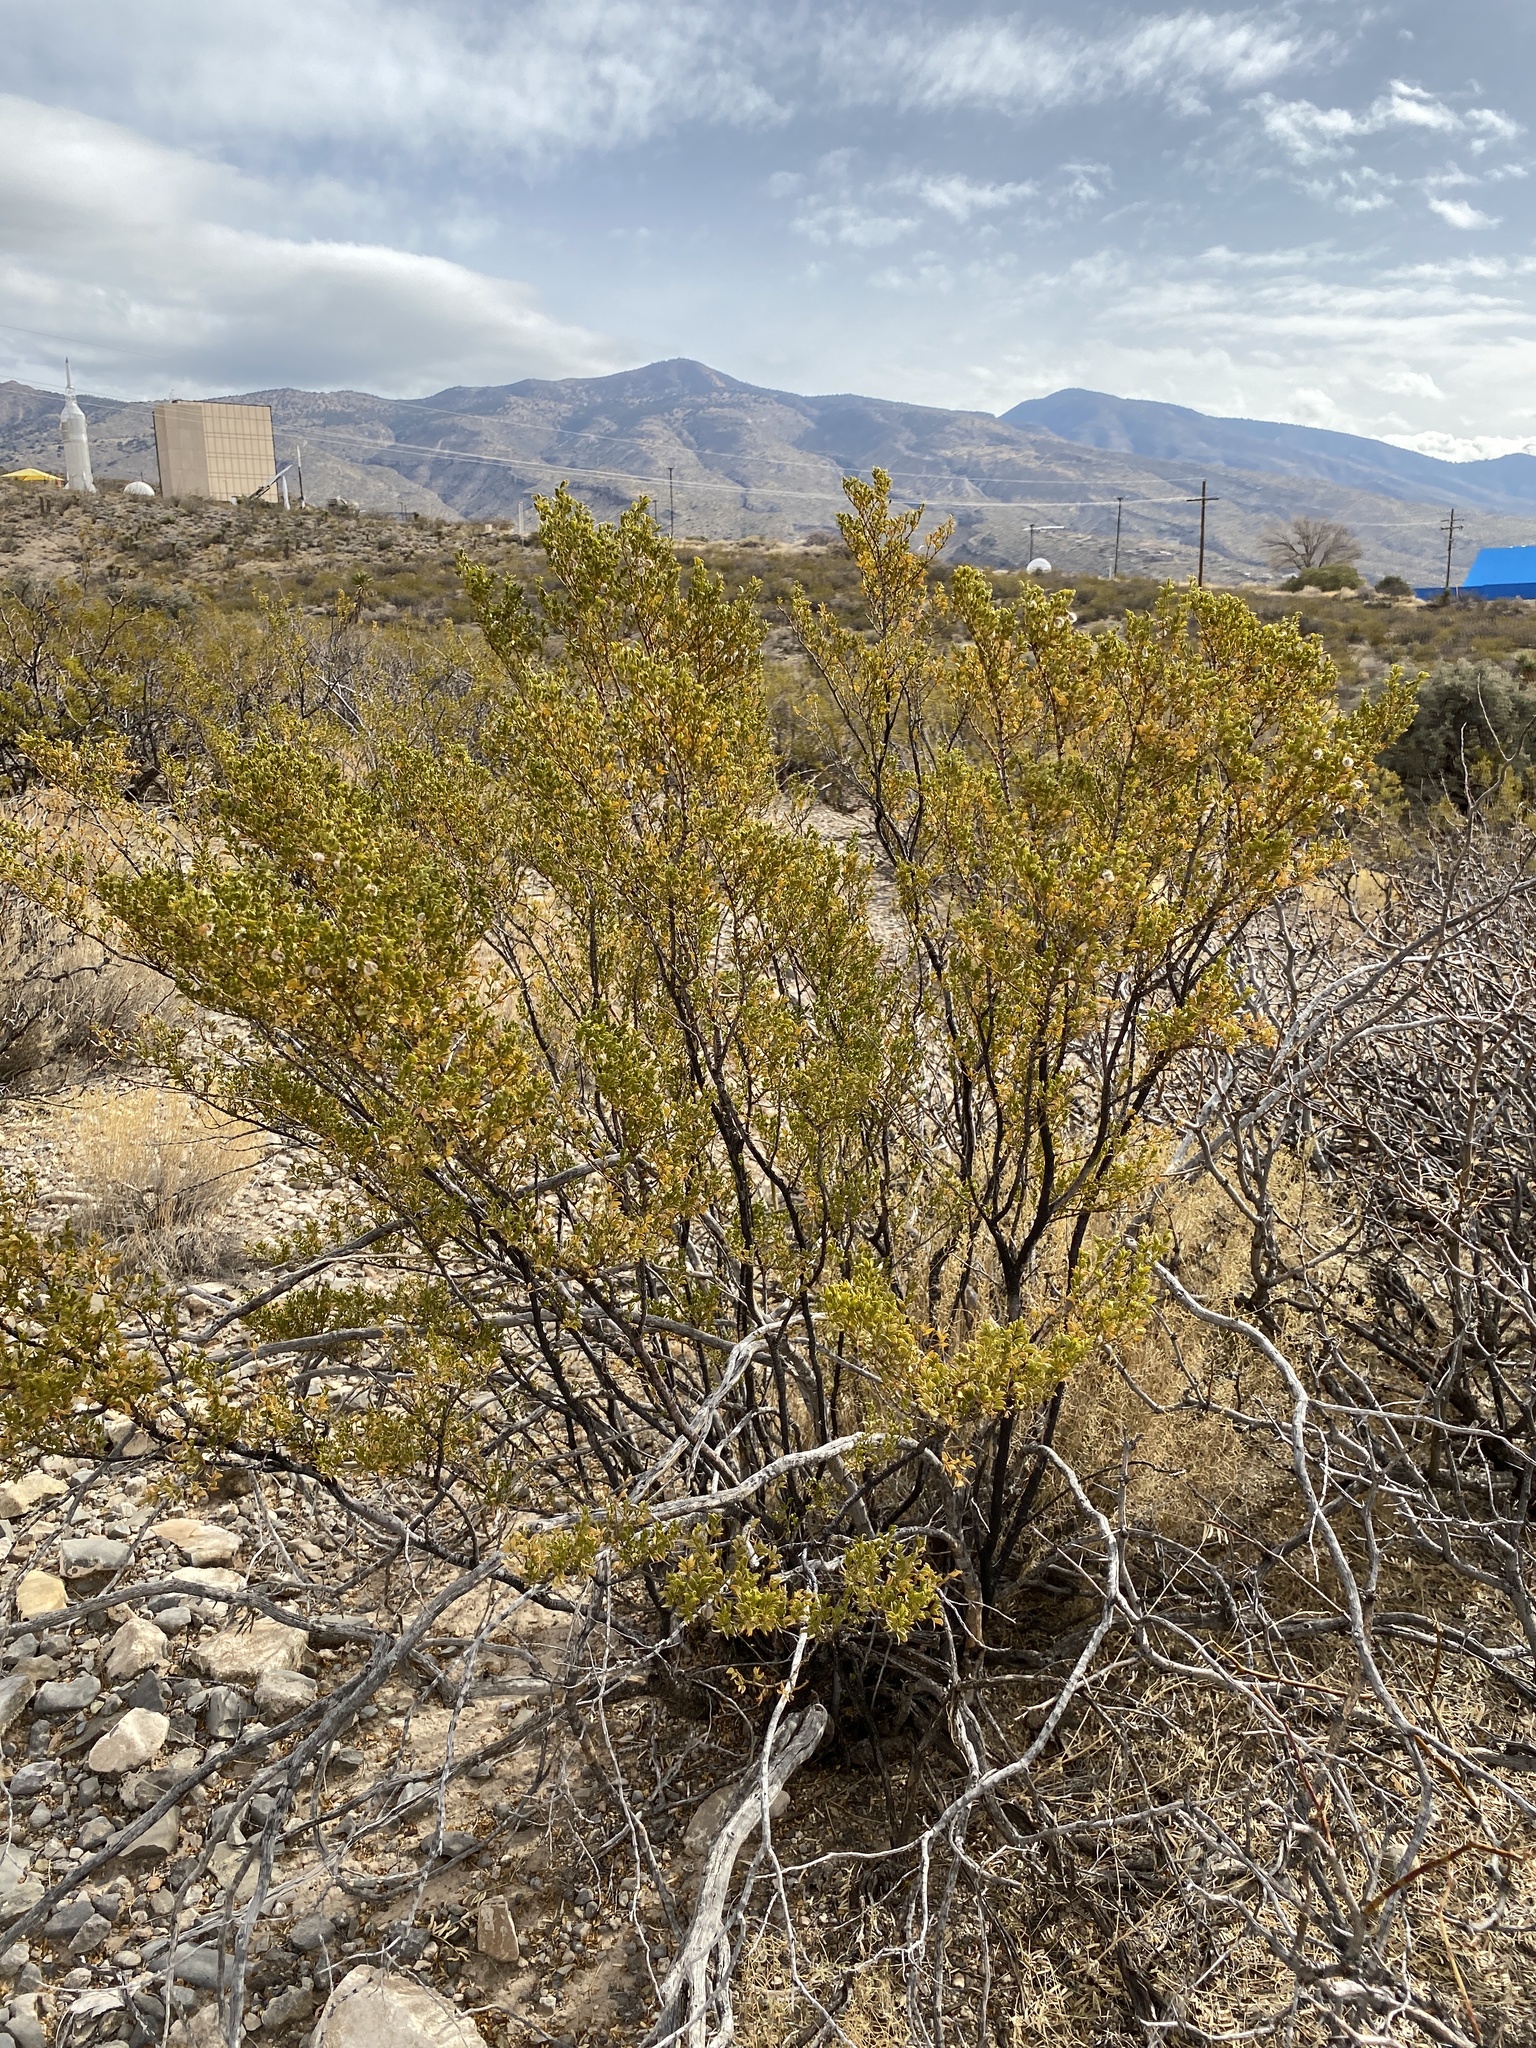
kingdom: Plantae
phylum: Tracheophyta
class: Magnoliopsida
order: Zygophyllales
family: Zygophyllaceae
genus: Larrea
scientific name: Larrea tridentata
